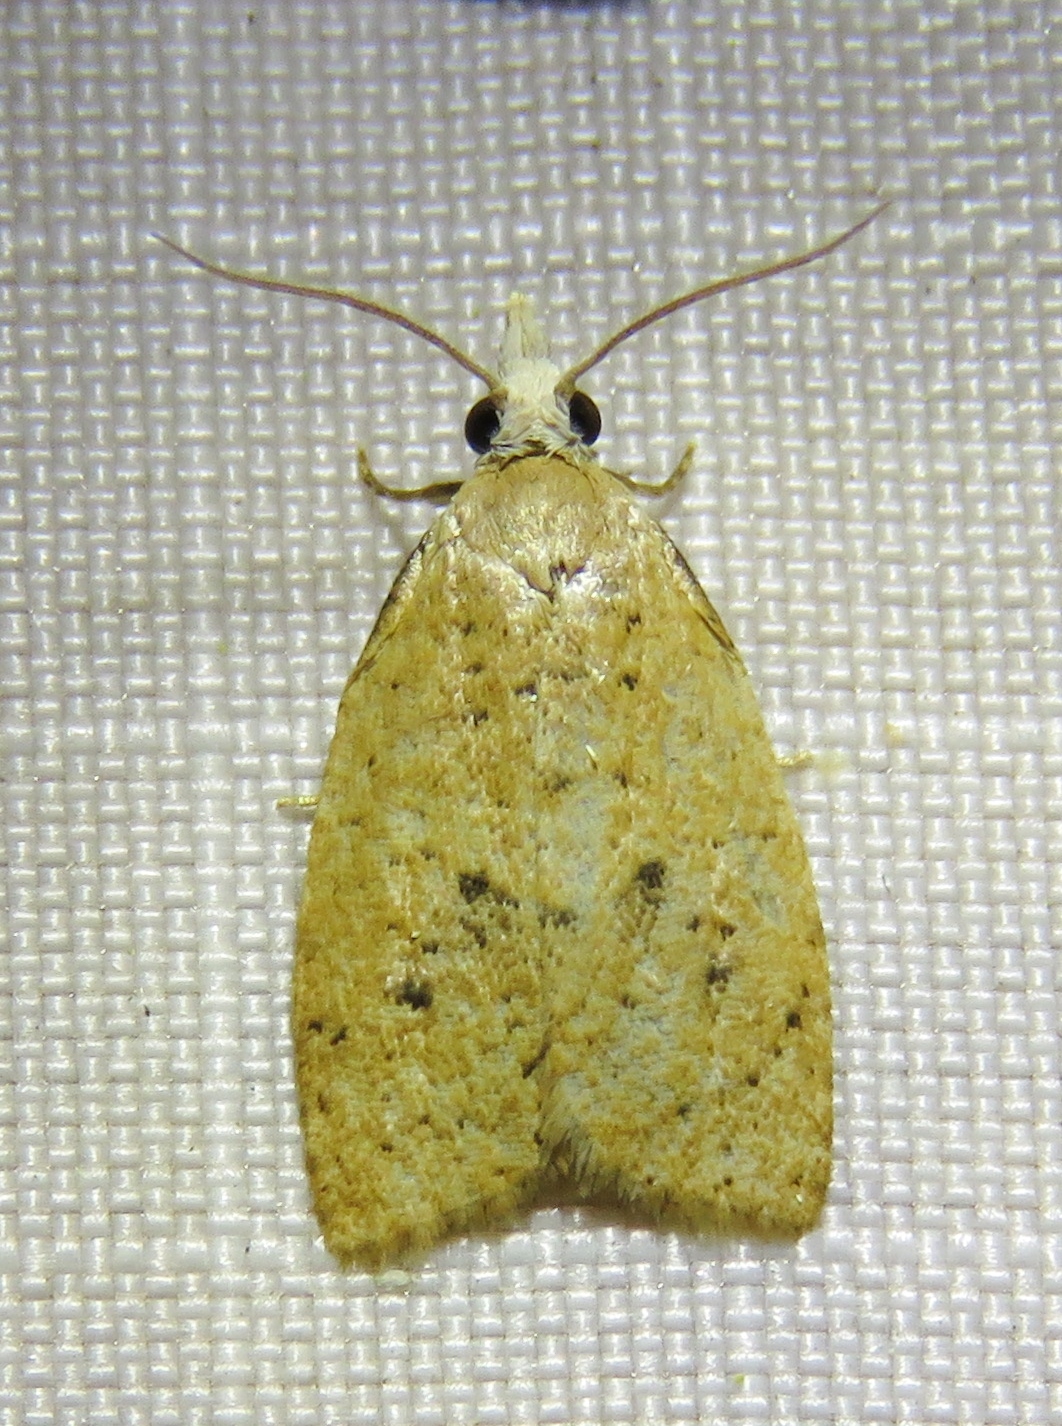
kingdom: Animalia
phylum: Arthropoda
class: Insecta
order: Lepidoptera
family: Tortricidae
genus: Sparganothoides
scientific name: Sparganothoides lentiginosana
